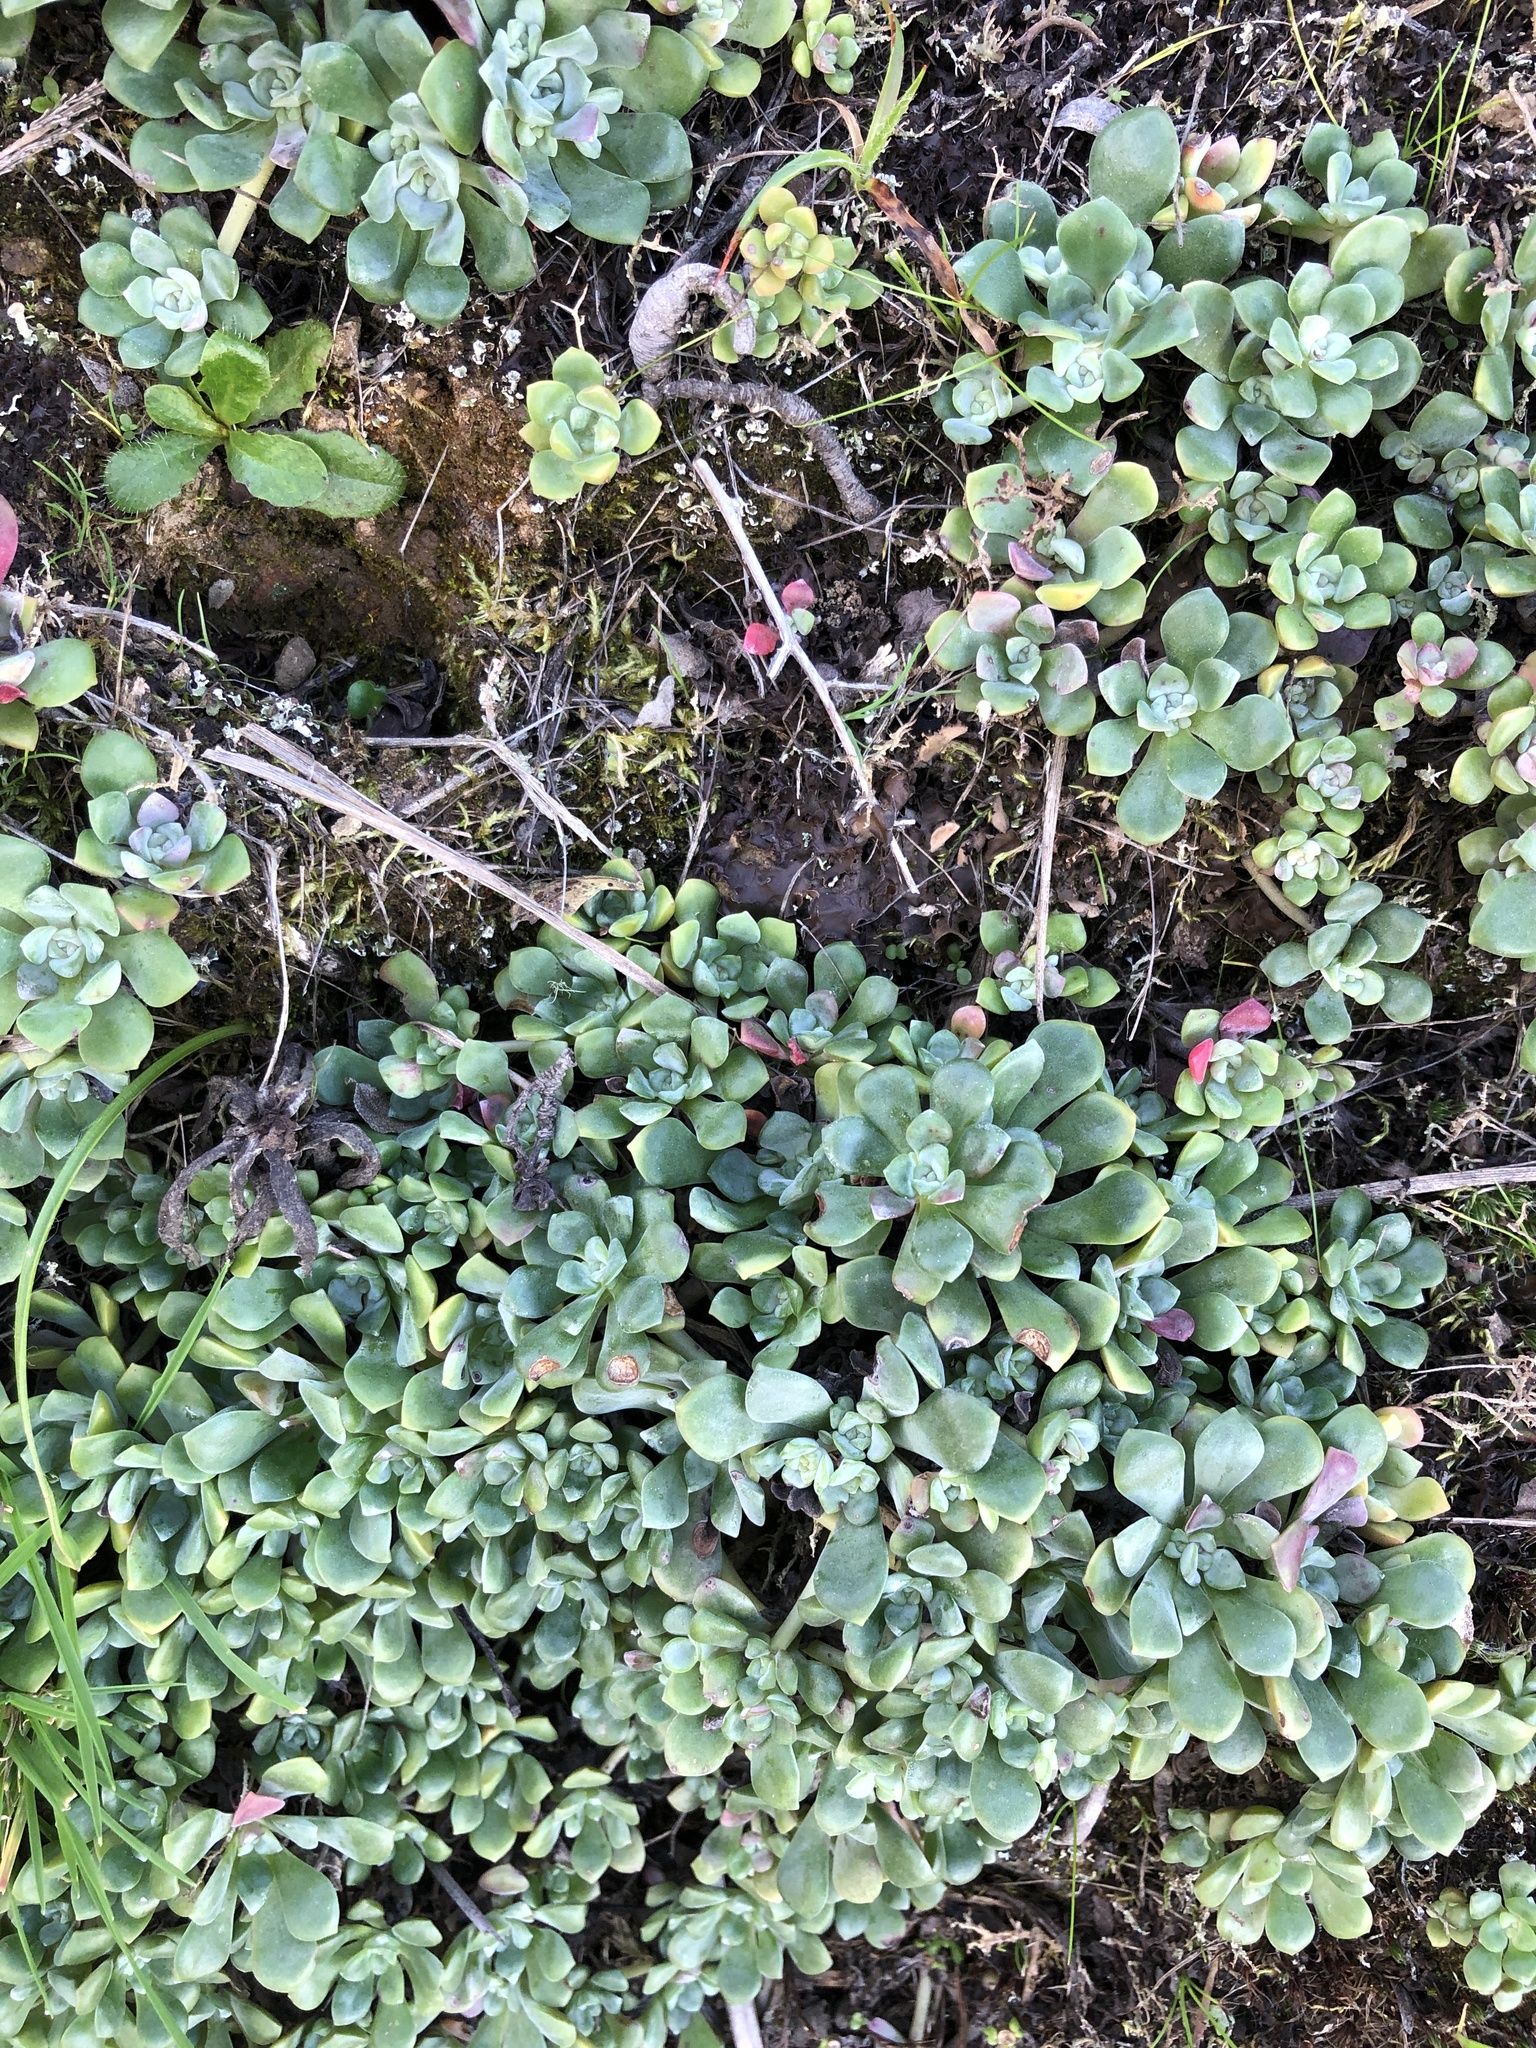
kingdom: Plantae
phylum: Tracheophyta
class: Magnoliopsida
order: Saxifragales
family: Crassulaceae
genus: Sedum
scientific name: Sedum spathulifolium
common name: Colorado stonecrop
